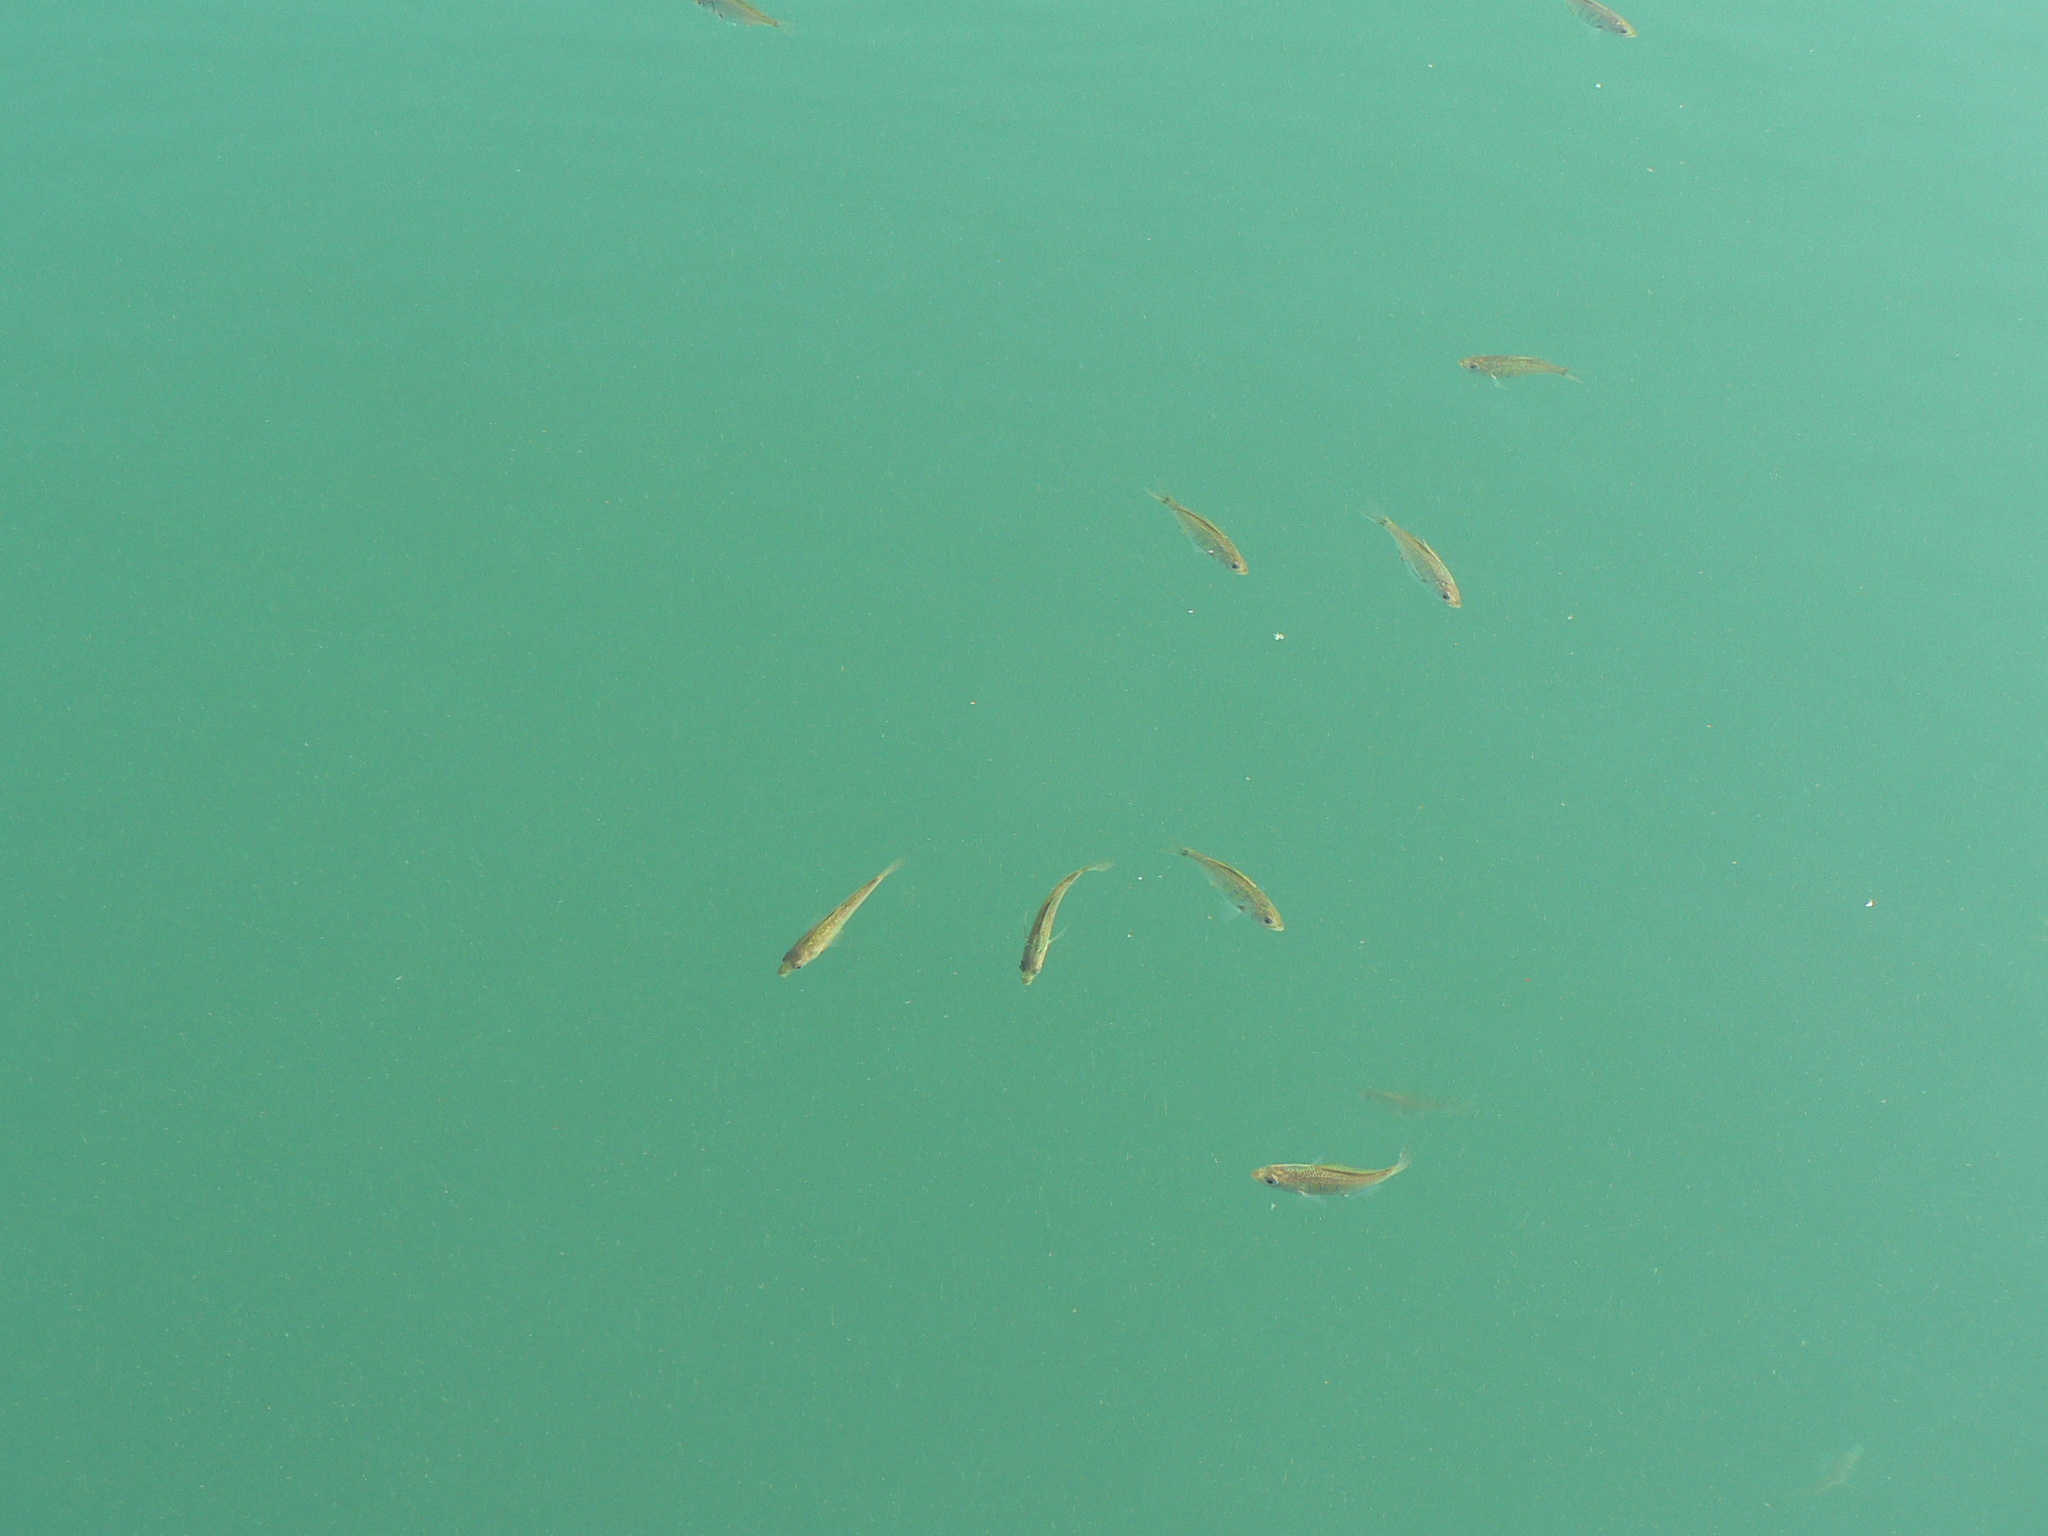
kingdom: Animalia
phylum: Chordata
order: Perciformes
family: Embiotocidae
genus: Cymatogaster
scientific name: Cymatogaster aggregata
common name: Shiner perch
